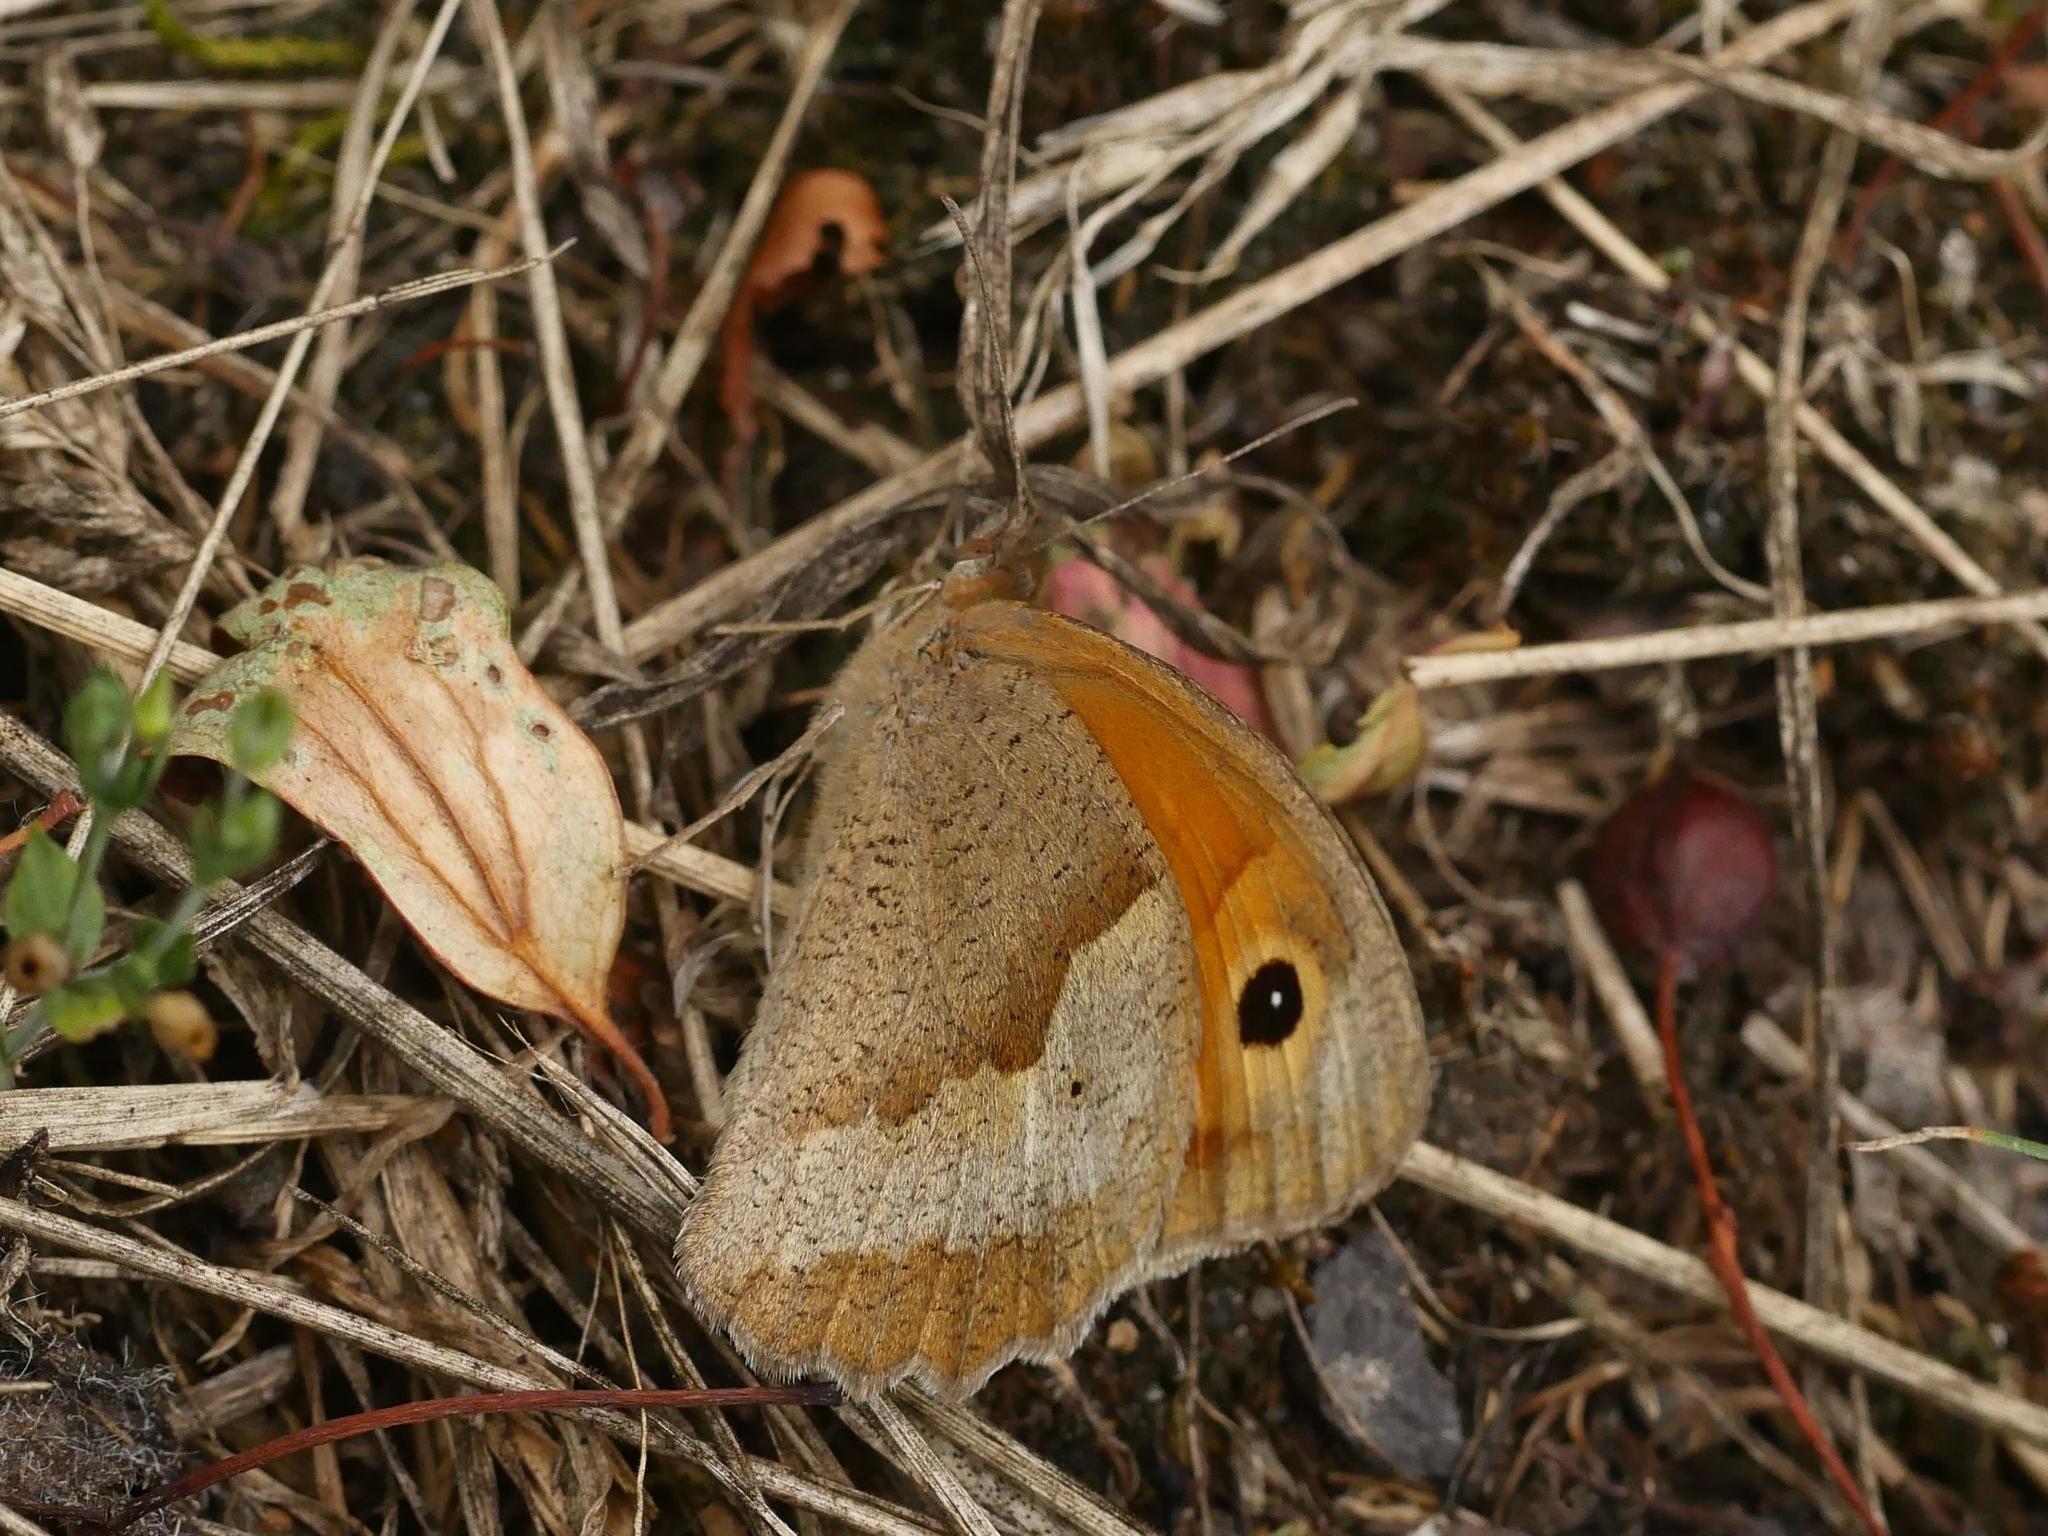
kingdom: Animalia
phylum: Arthropoda
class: Insecta
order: Lepidoptera
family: Nymphalidae
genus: Maniola
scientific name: Maniola jurtina
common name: Meadow brown
